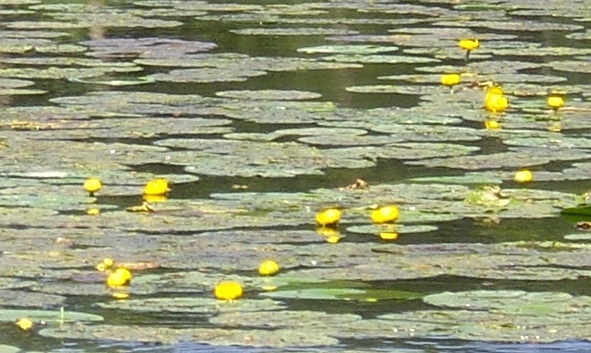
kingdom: Plantae
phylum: Tracheophyta
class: Magnoliopsida
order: Nymphaeales
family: Nymphaeaceae
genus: Nuphar
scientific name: Nuphar lutea
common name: Yellow water-lily
